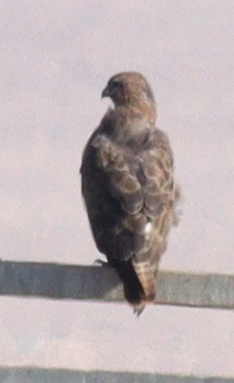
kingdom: Animalia
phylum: Chordata
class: Aves
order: Accipitriformes
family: Accipitridae
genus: Buteo
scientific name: Buteo buteo
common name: Common buzzard
